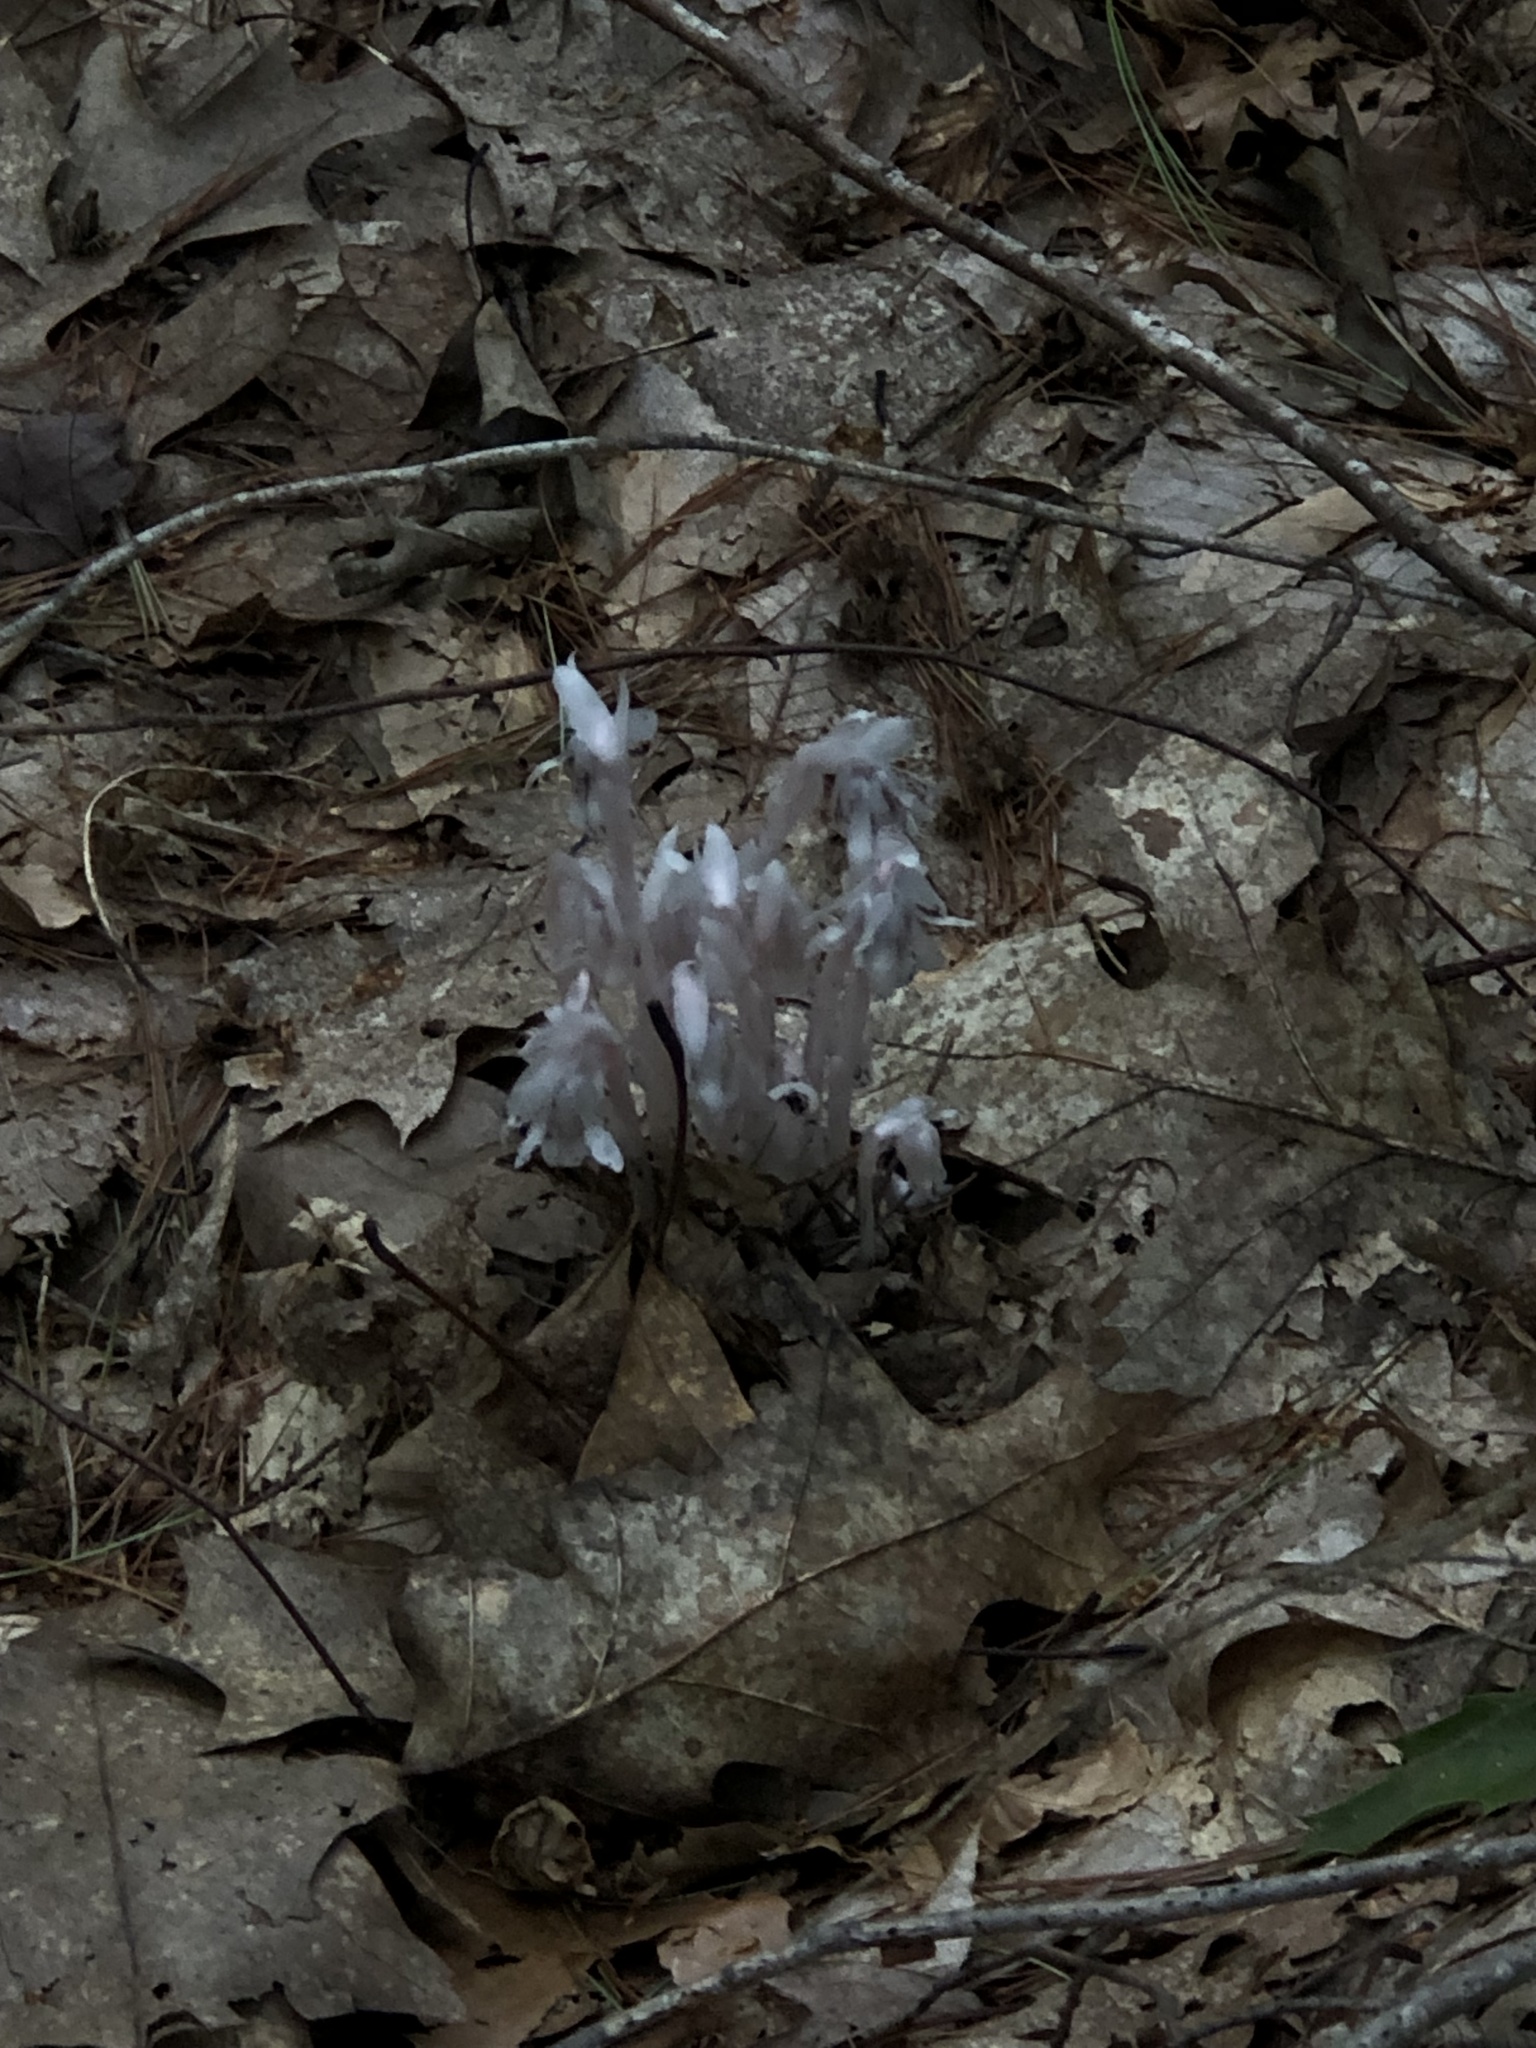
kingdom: Plantae
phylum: Tracheophyta
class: Magnoliopsida
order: Ericales
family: Ericaceae
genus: Monotropa
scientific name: Monotropa uniflora
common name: Convulsion root
